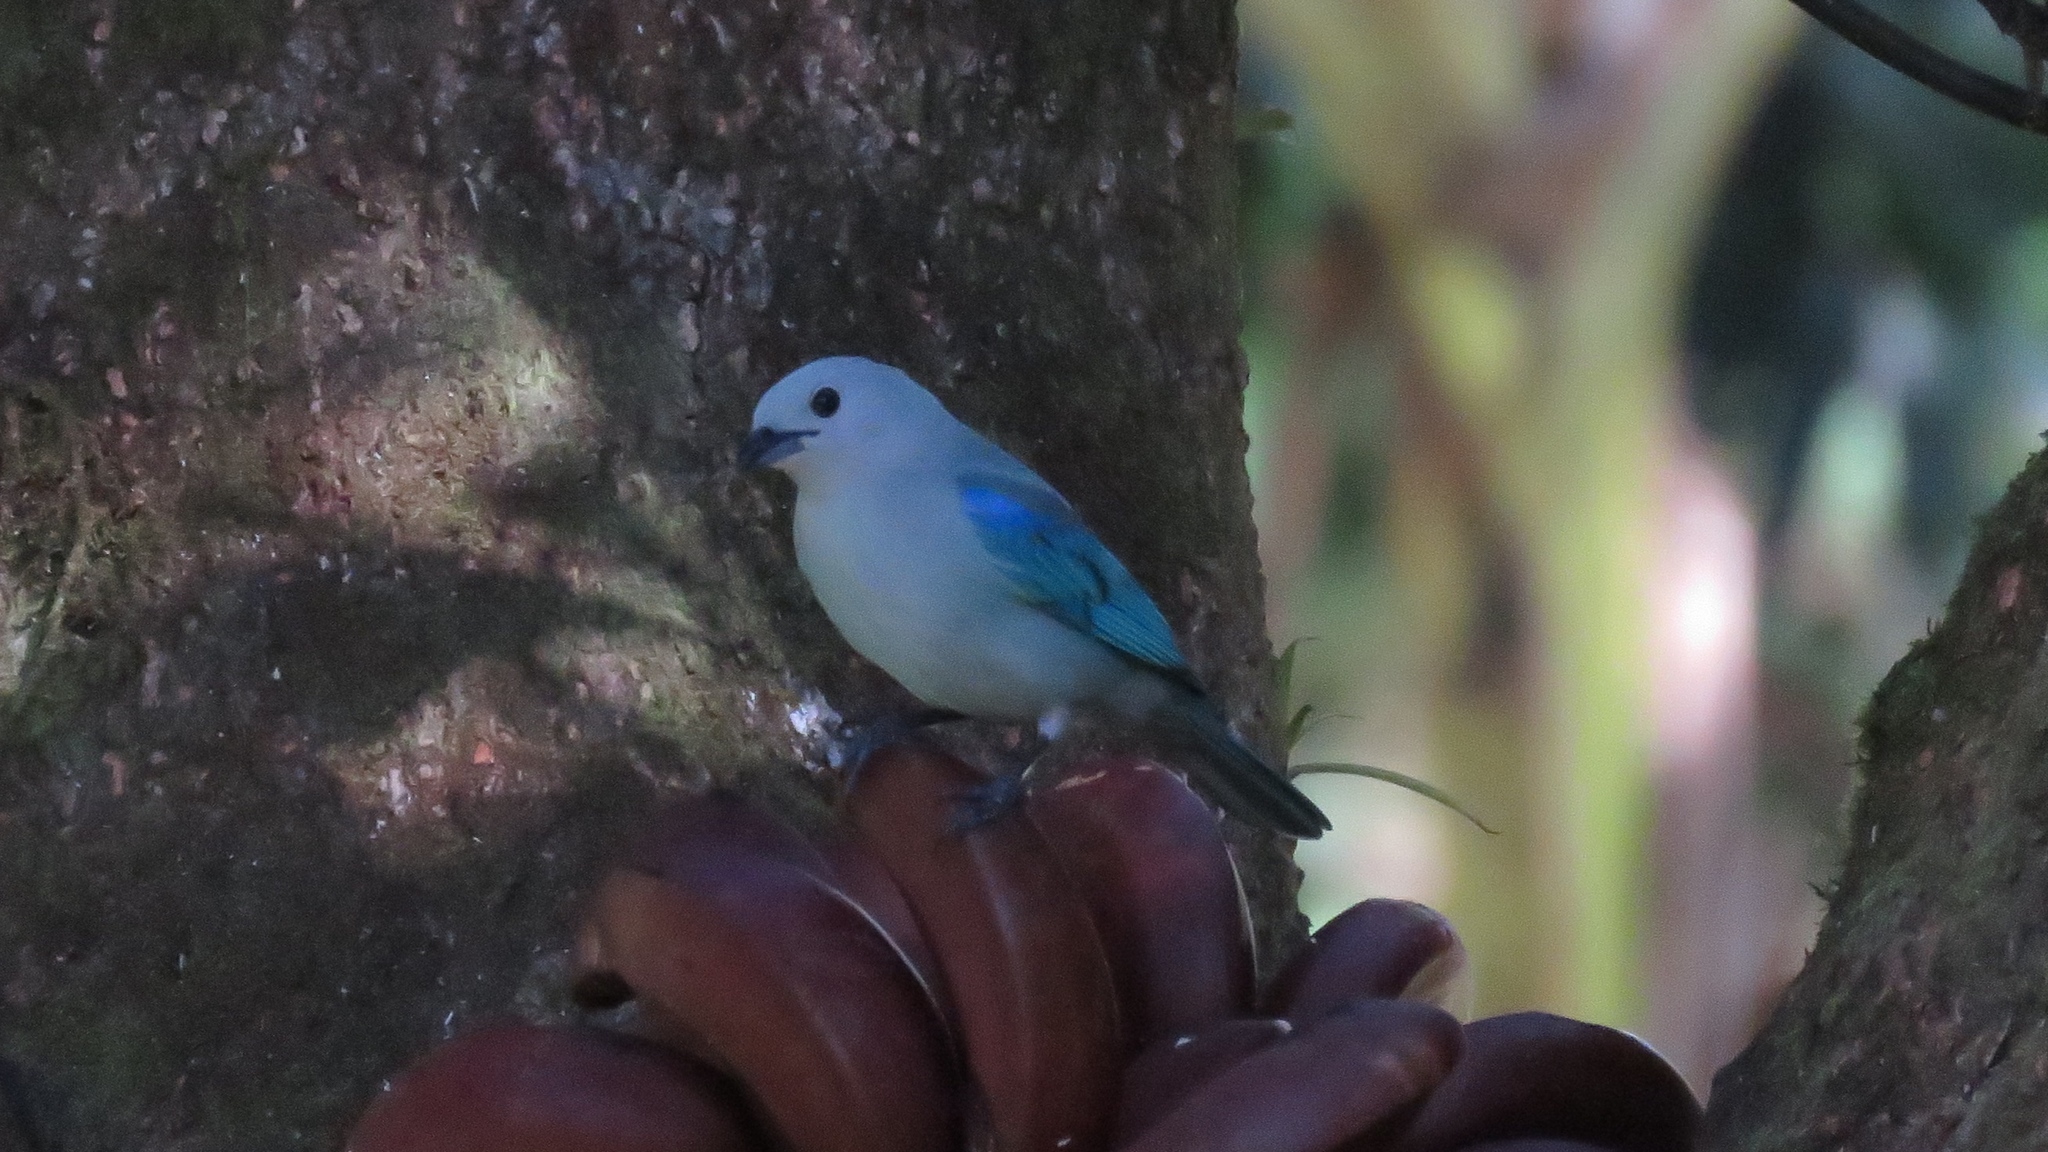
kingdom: Animalia
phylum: Chordata
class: Aves
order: Passeriformes
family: Thraupidae
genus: Thraupis
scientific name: Thraupis episcopus
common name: Blue-grey tanager
